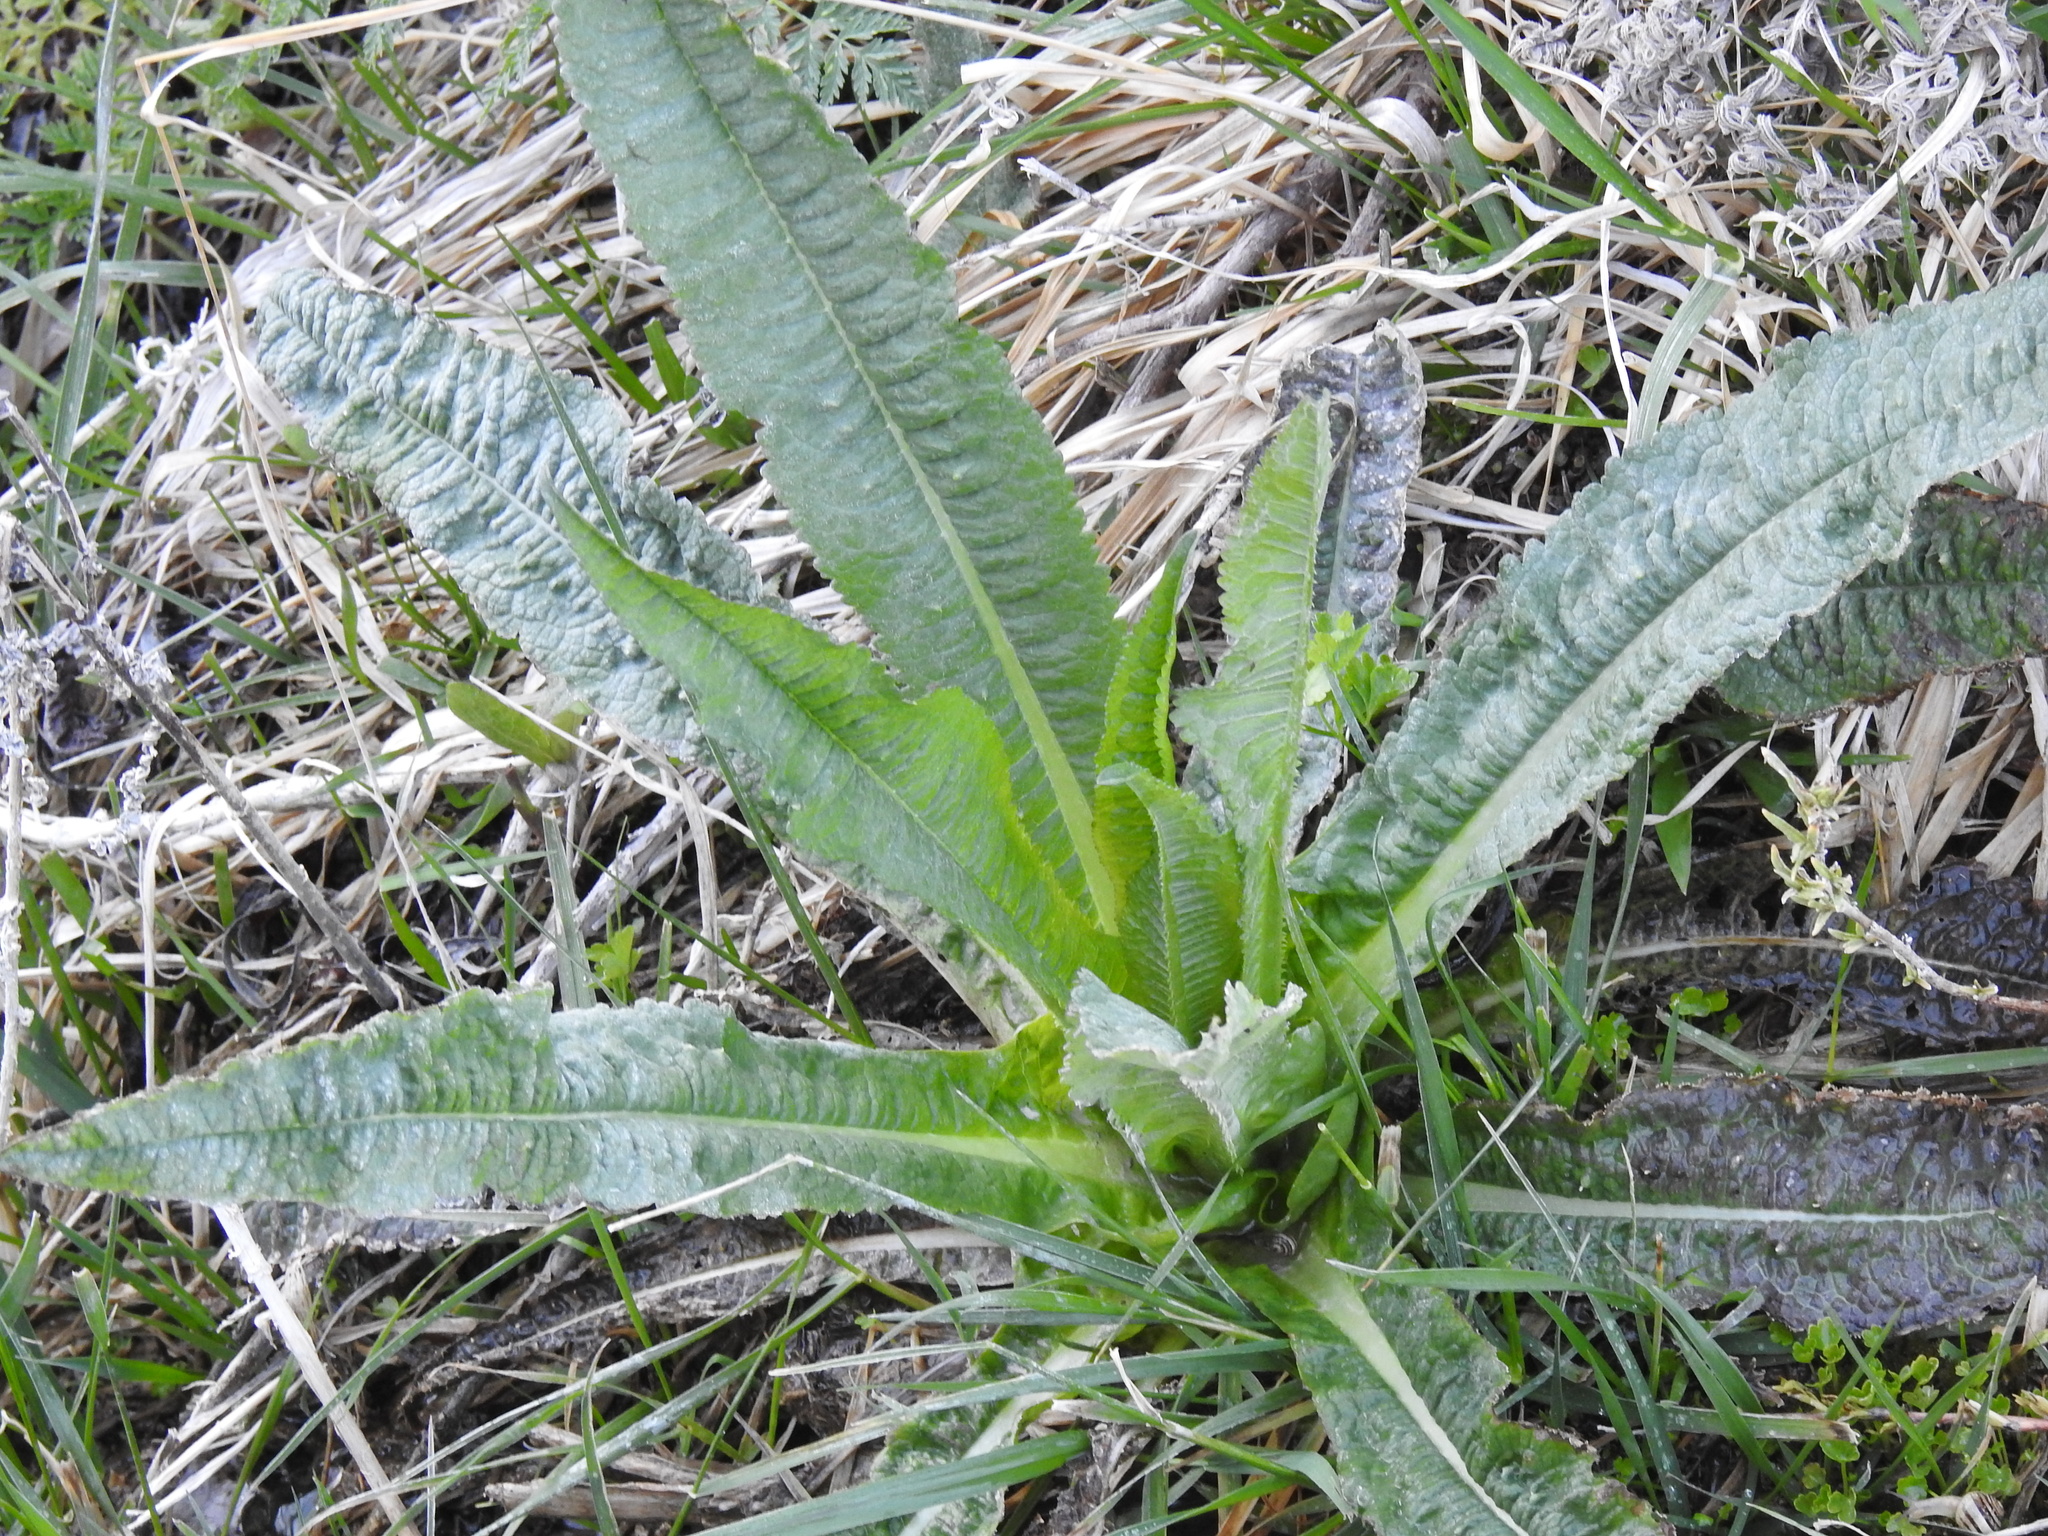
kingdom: Plantae
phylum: Tracheophyta
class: Magnoliopsida
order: Dipsacales
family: Caprifoliaceae
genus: Dipsacus
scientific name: Dipsacus fullonum
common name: Teasel
